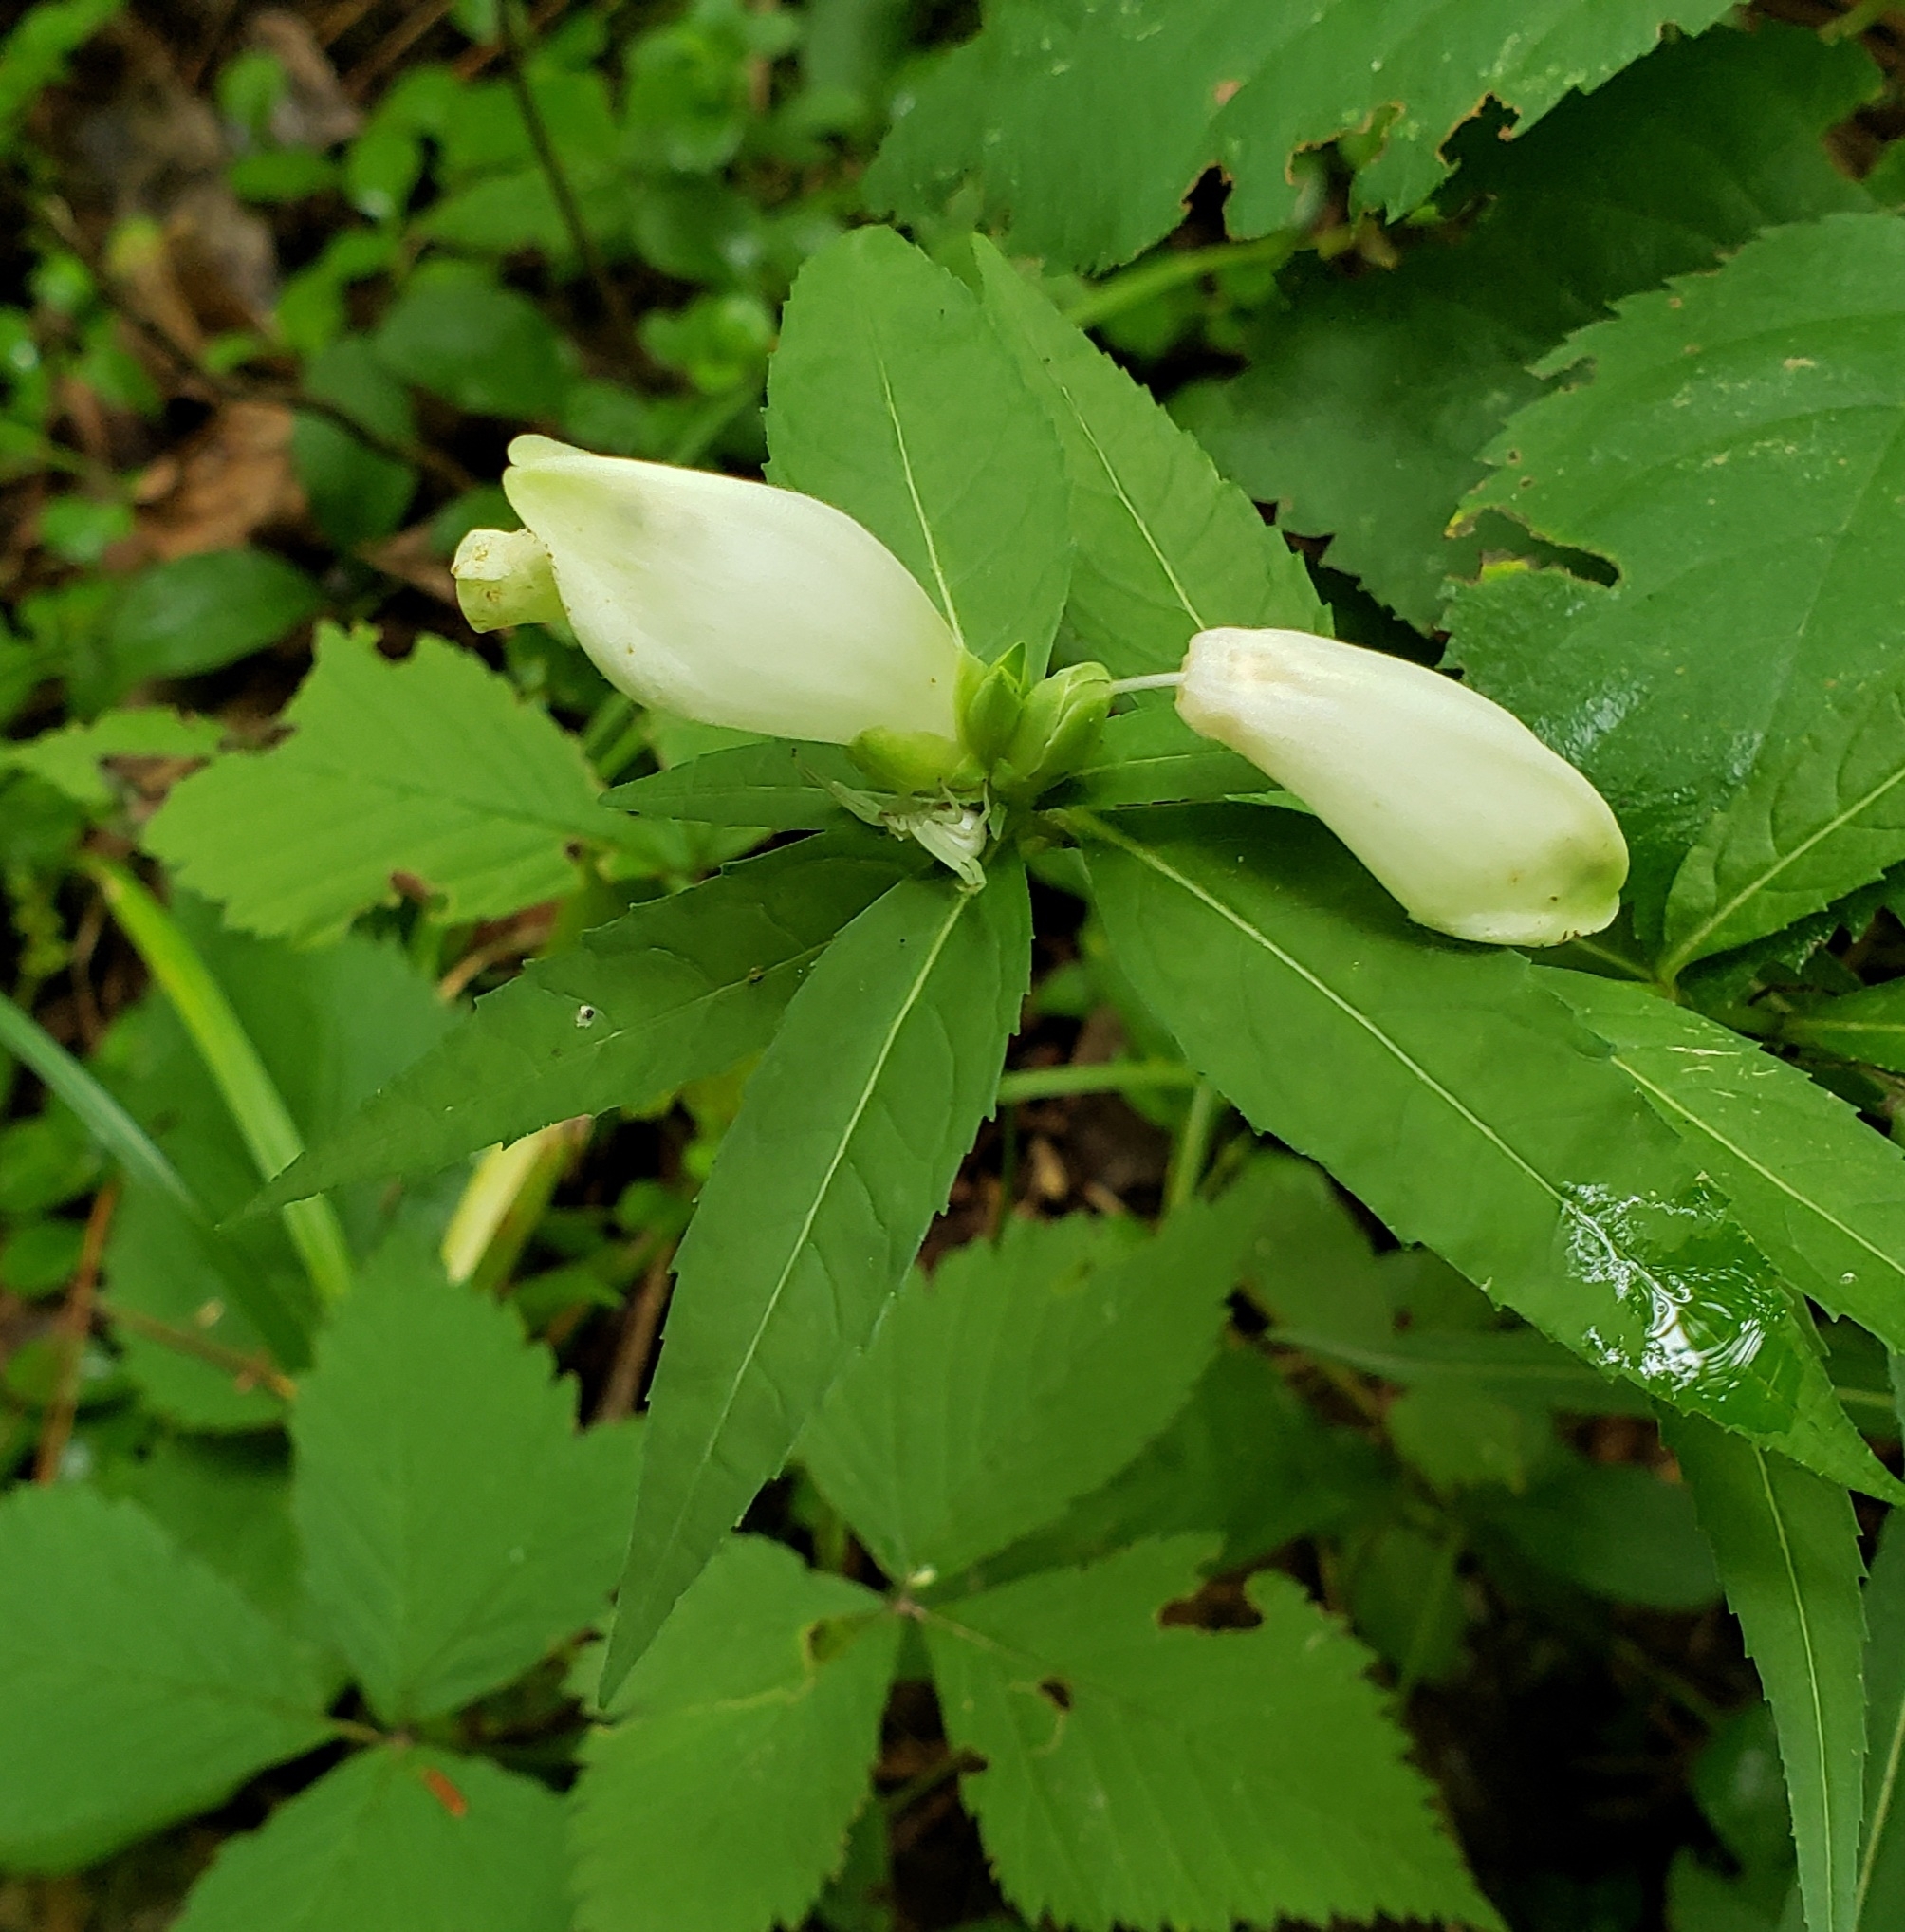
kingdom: Plantae
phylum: Tracheophyta
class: Magnoliopsida
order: Lamiales
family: Plantaginaceae
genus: Chelone
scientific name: Chelone glabra
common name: Snakehead
